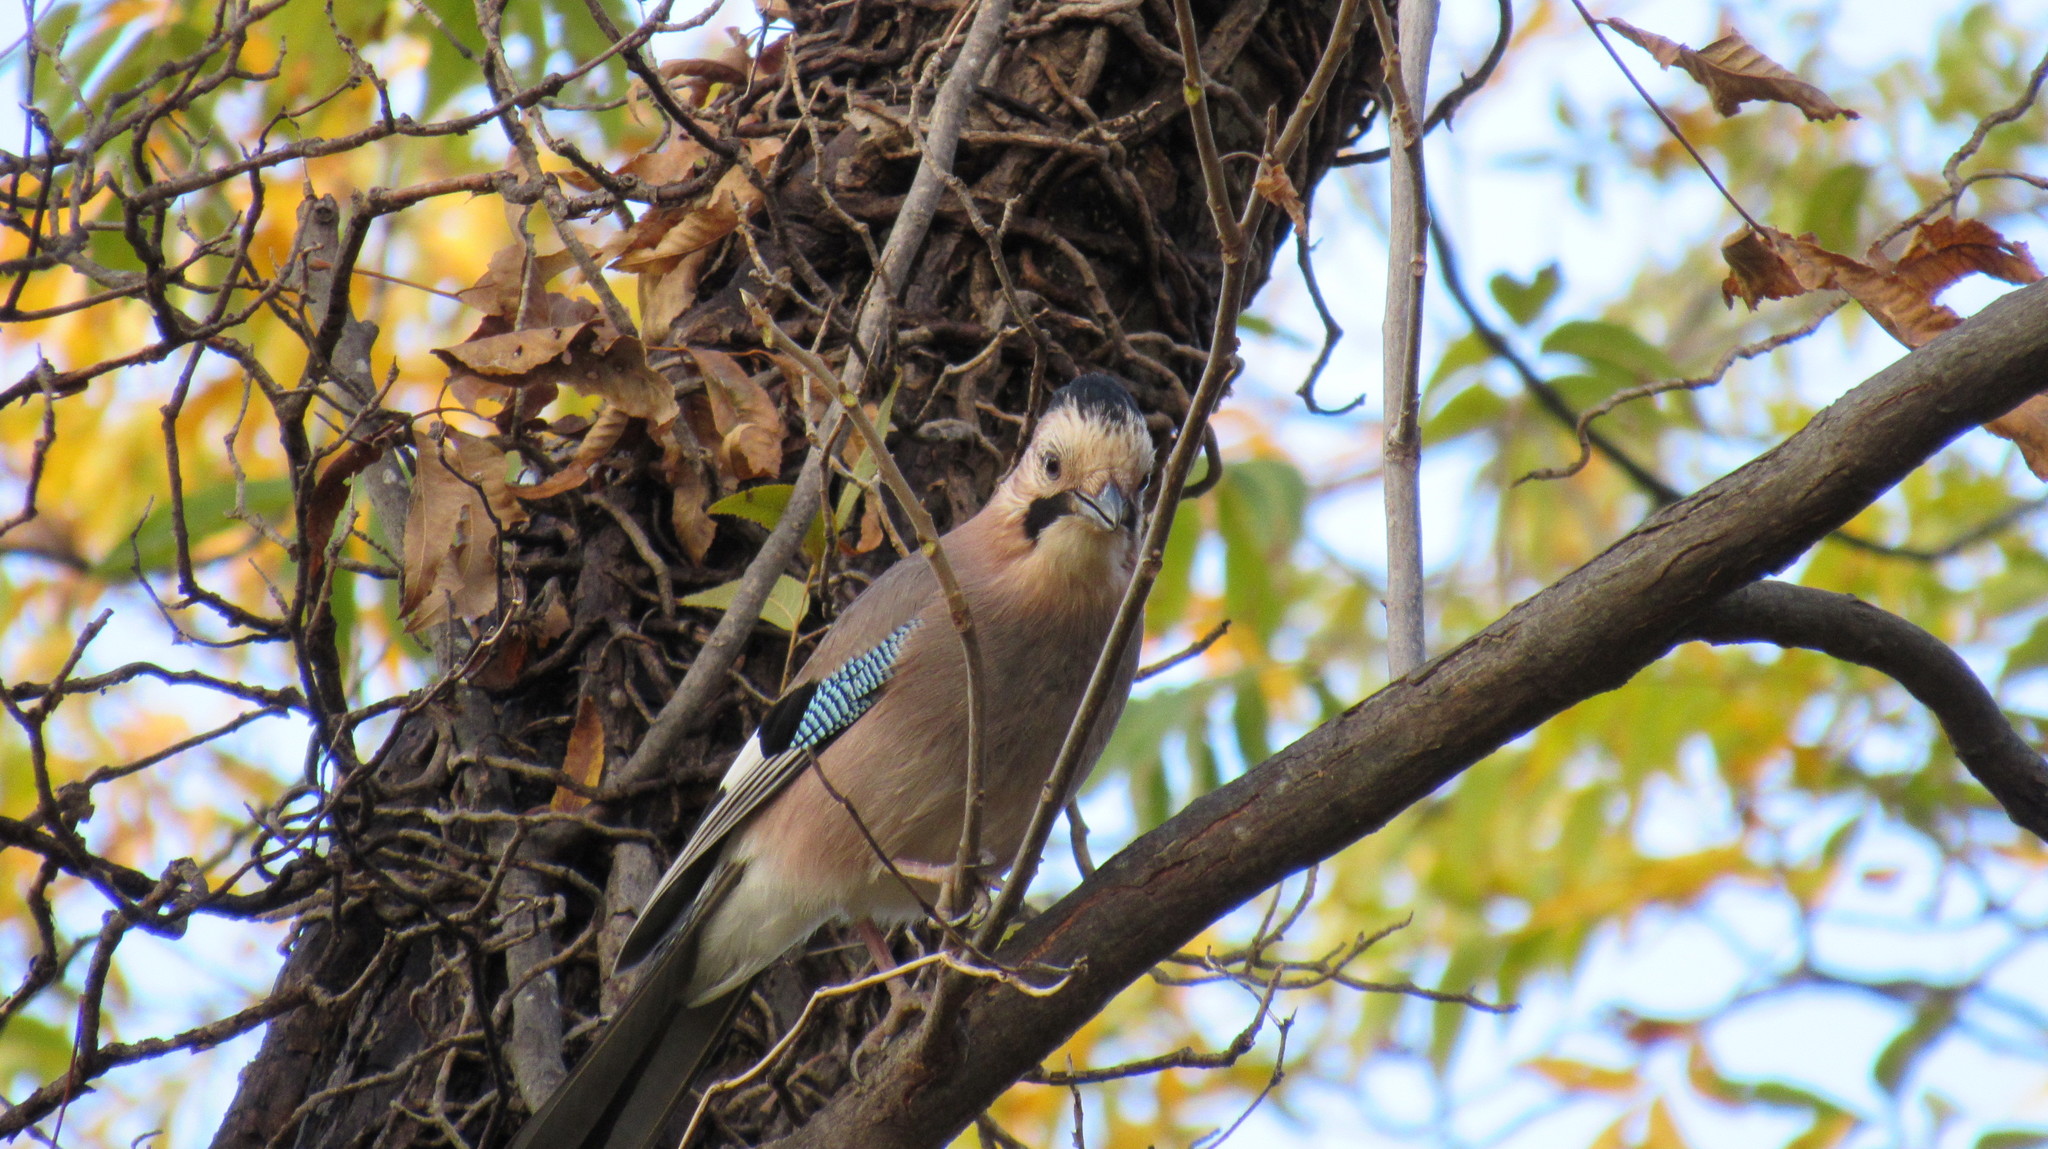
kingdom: Animalia
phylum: Chordata
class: Aves
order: Passeriformes
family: Corvidae
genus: Garrulus
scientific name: Garrulus glandarius
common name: Eurasian jay
